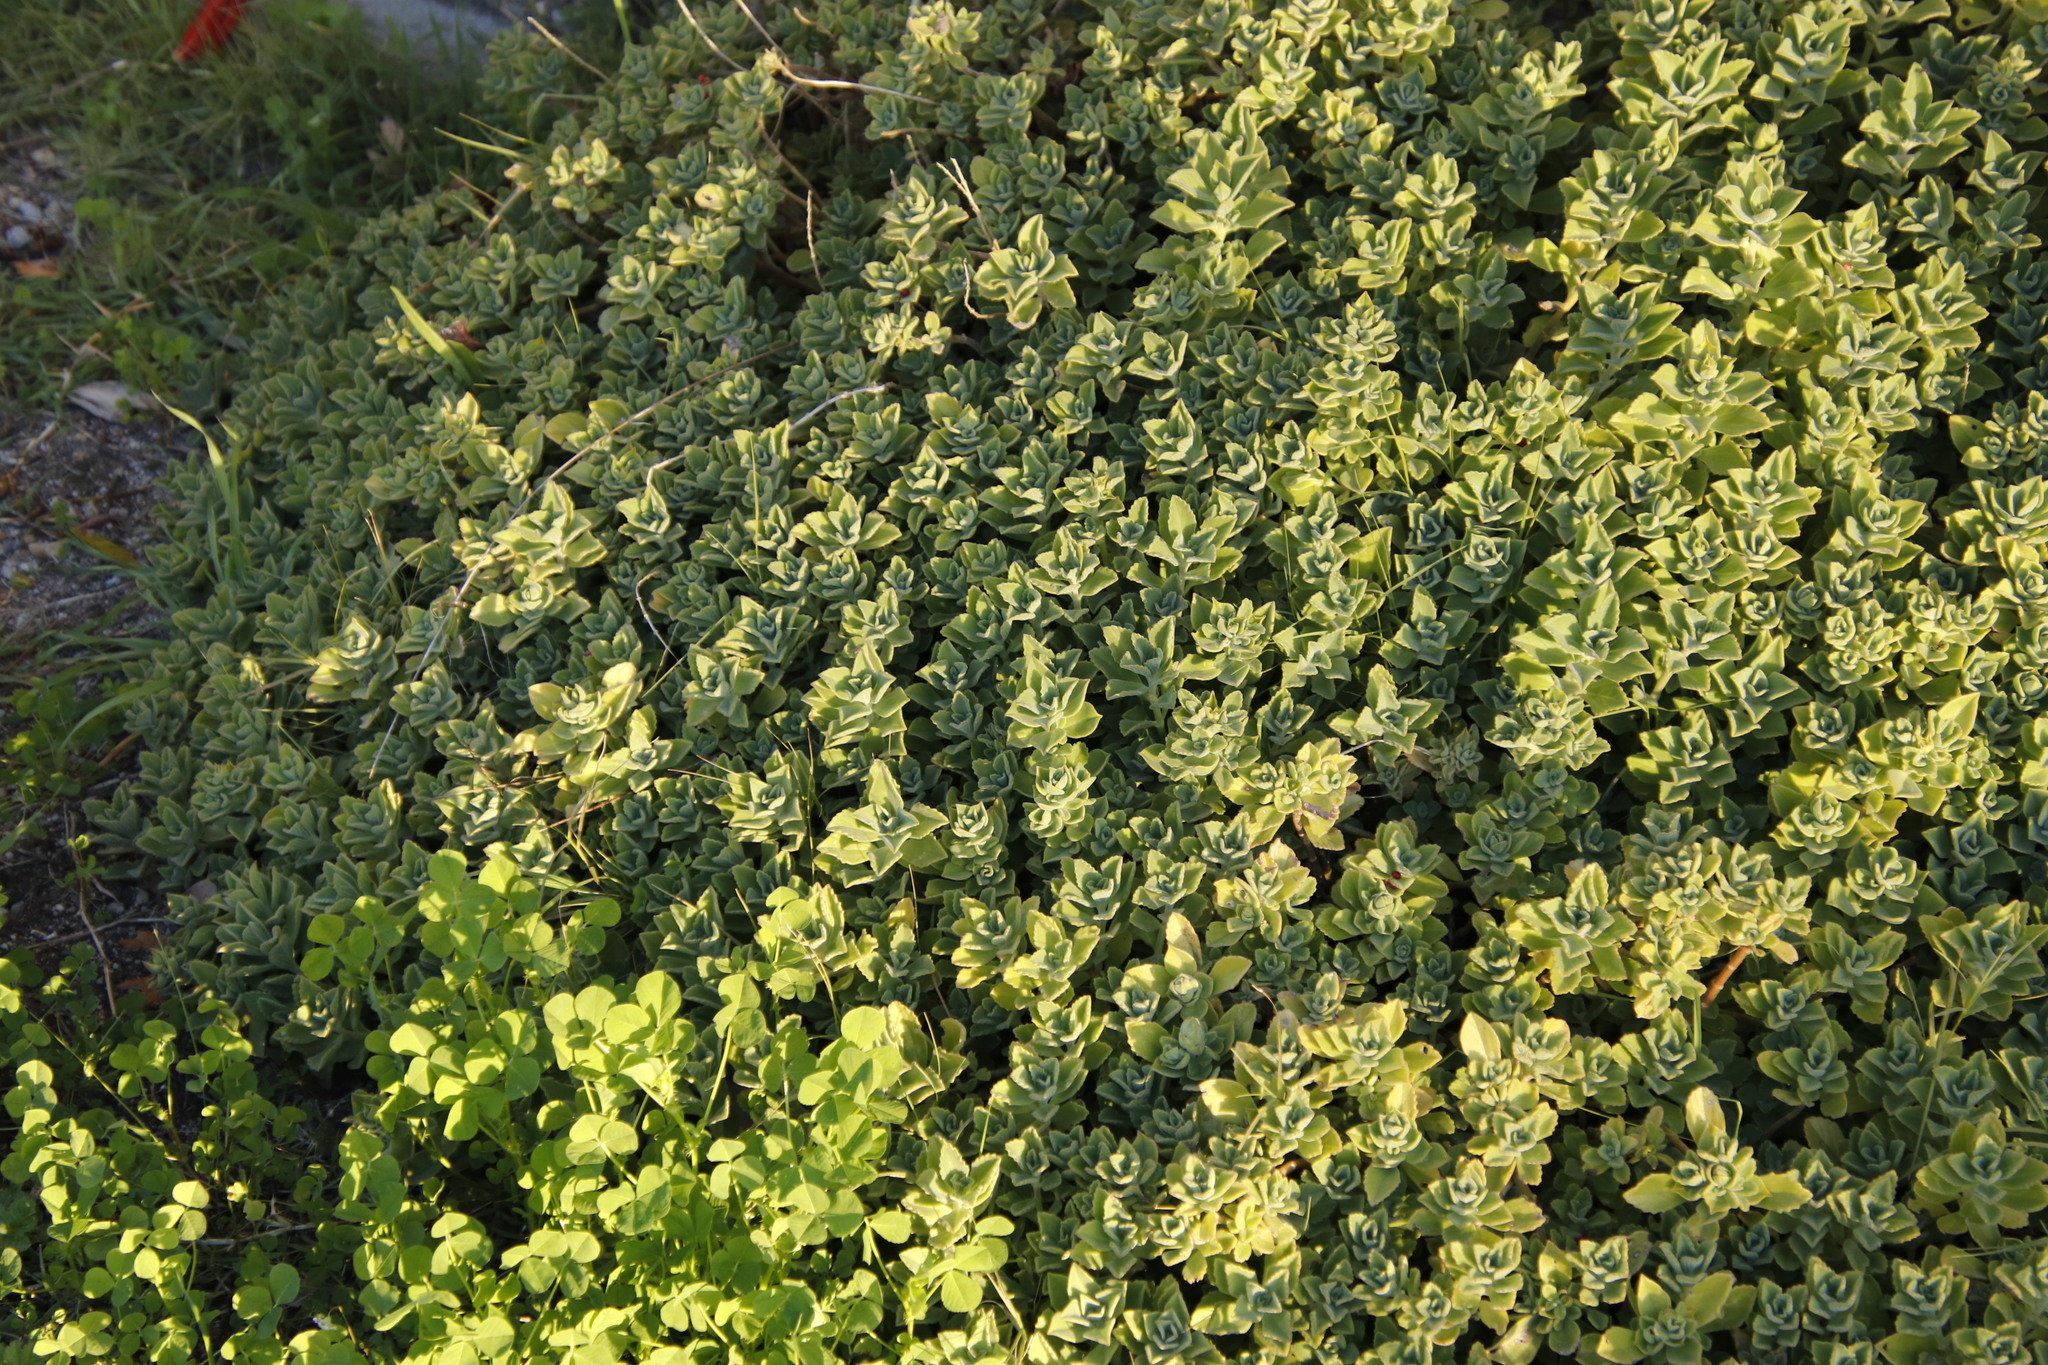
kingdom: Plantae
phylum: Tracheophyta
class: Magnoliopsida
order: Lamiales
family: Lamiaceae
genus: Coleus
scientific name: Coleus neochilus
